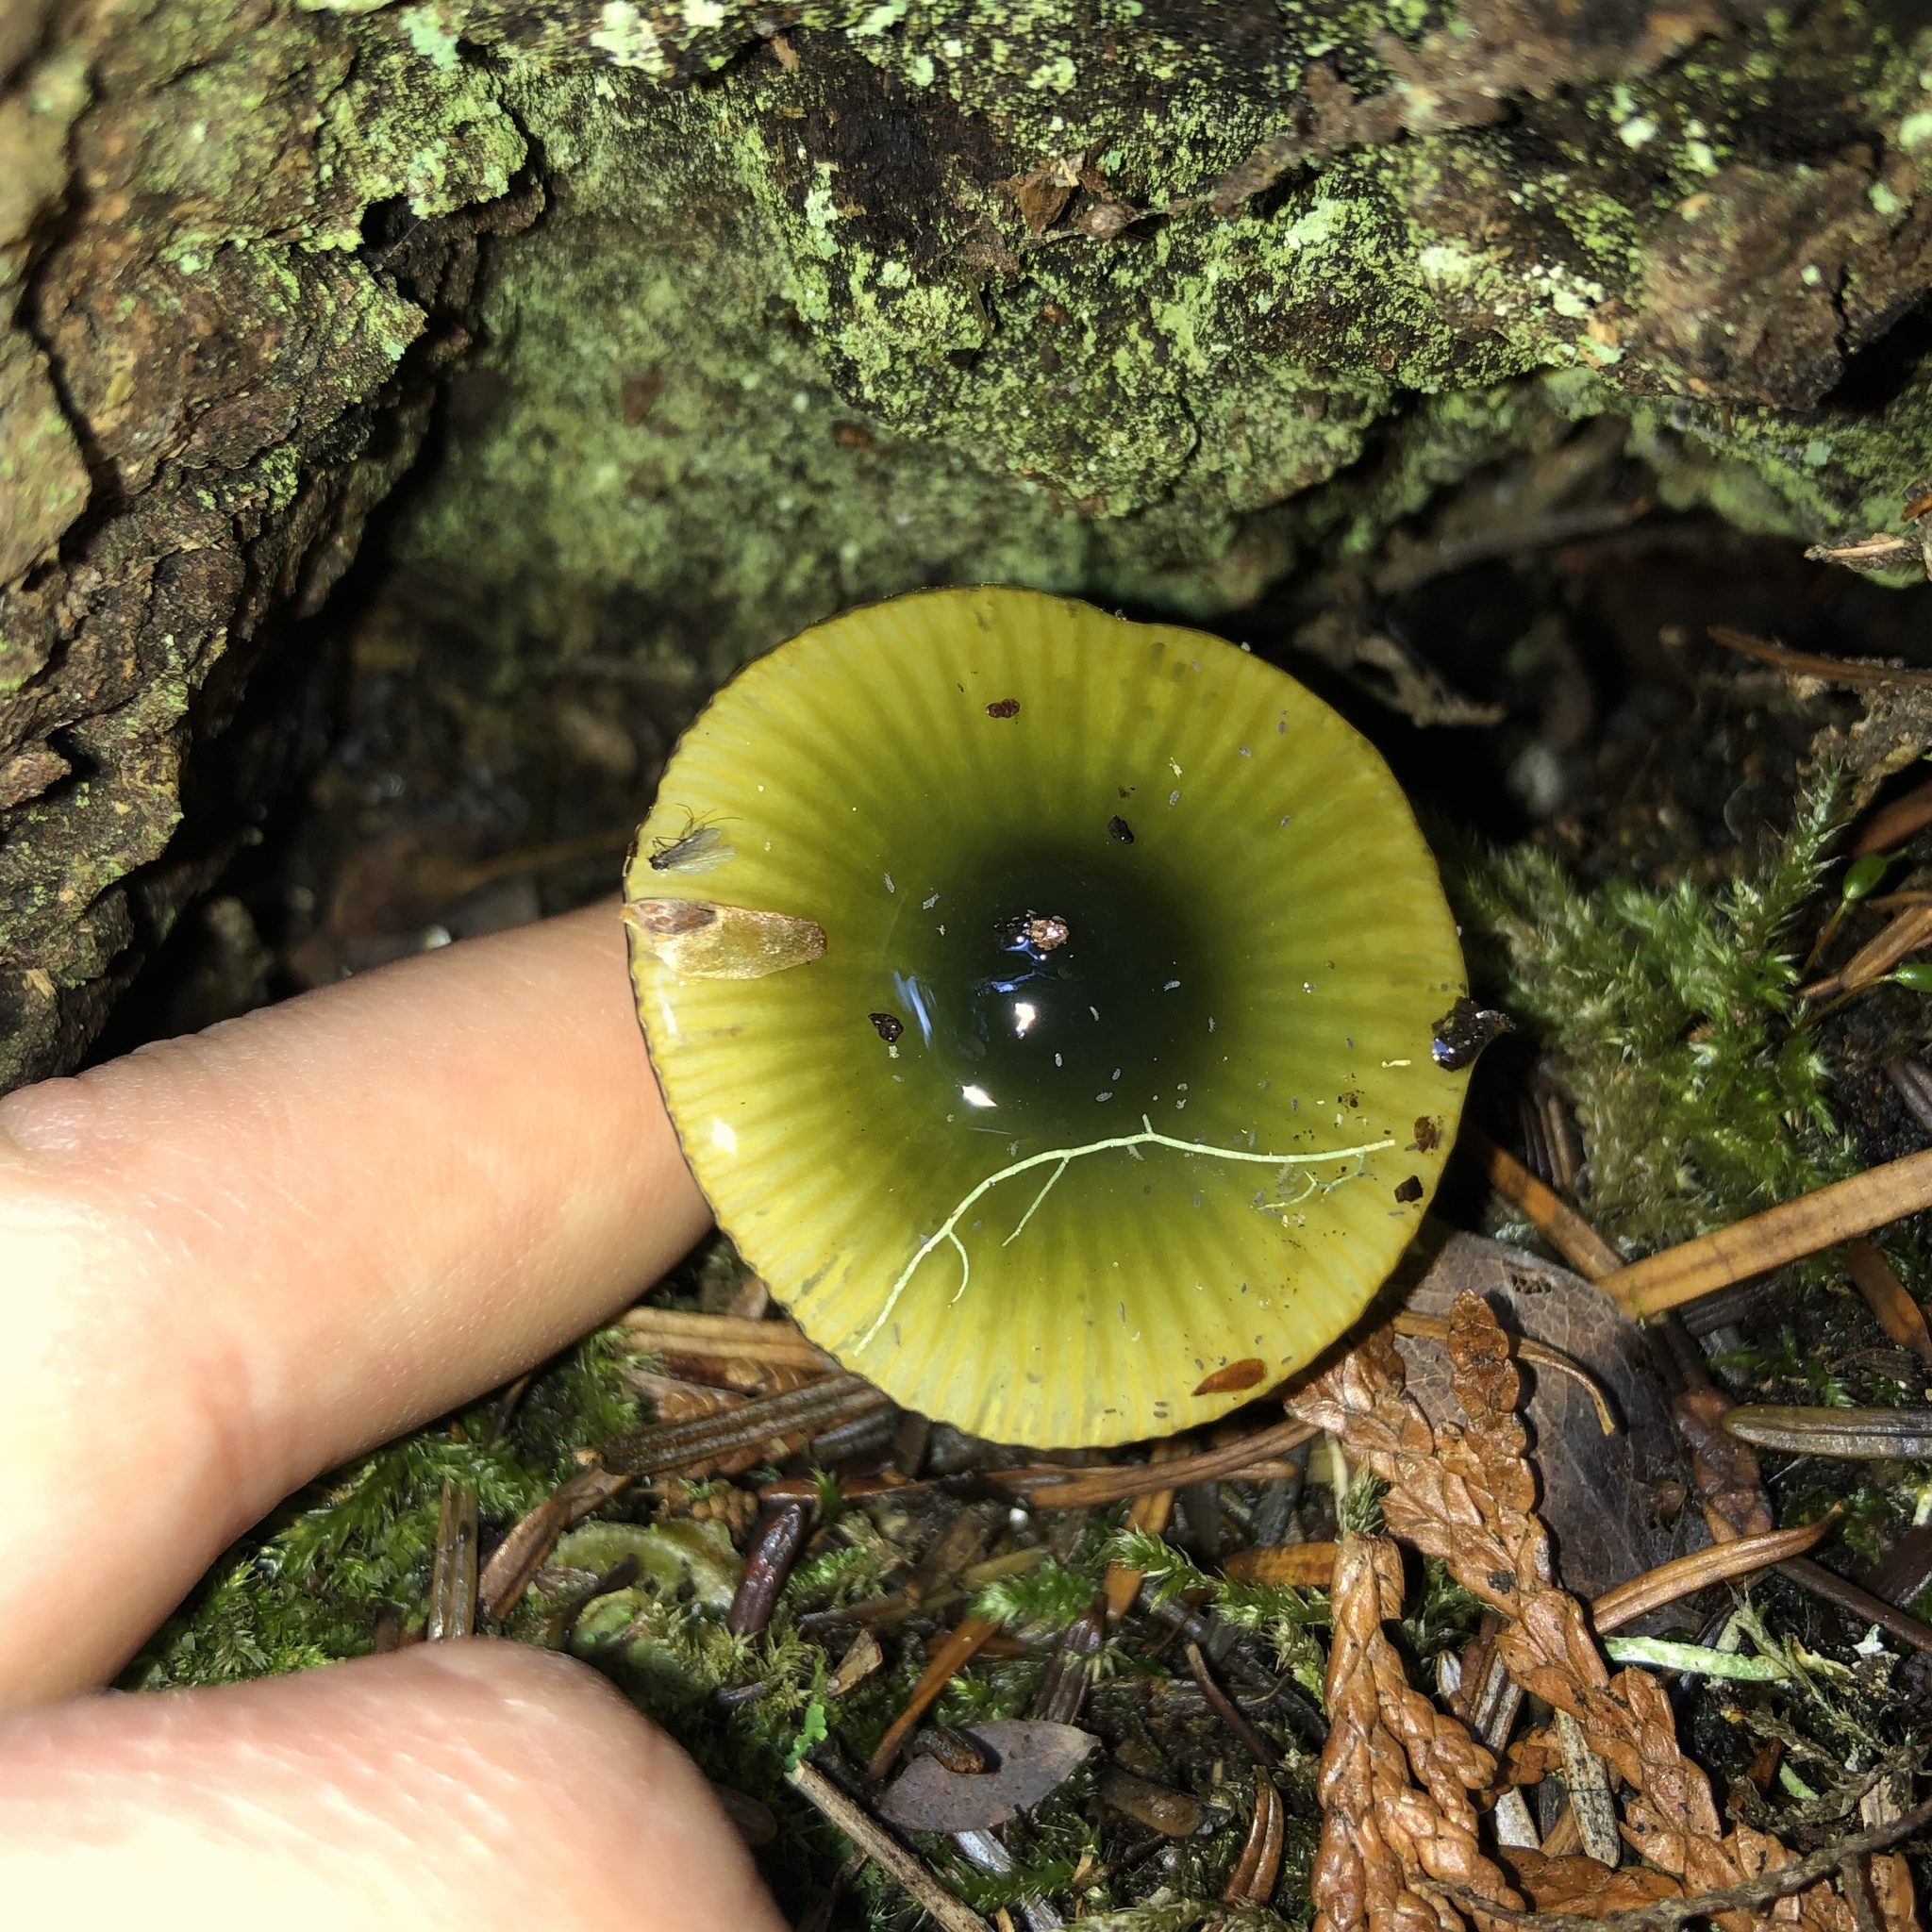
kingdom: Fungi
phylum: Basidiomycota
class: Agaricomycetes
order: Agaricales
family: Hygrophoraceae
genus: Gliophorus
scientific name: Gliophorus psittacinus
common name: Parrot wax-cap
